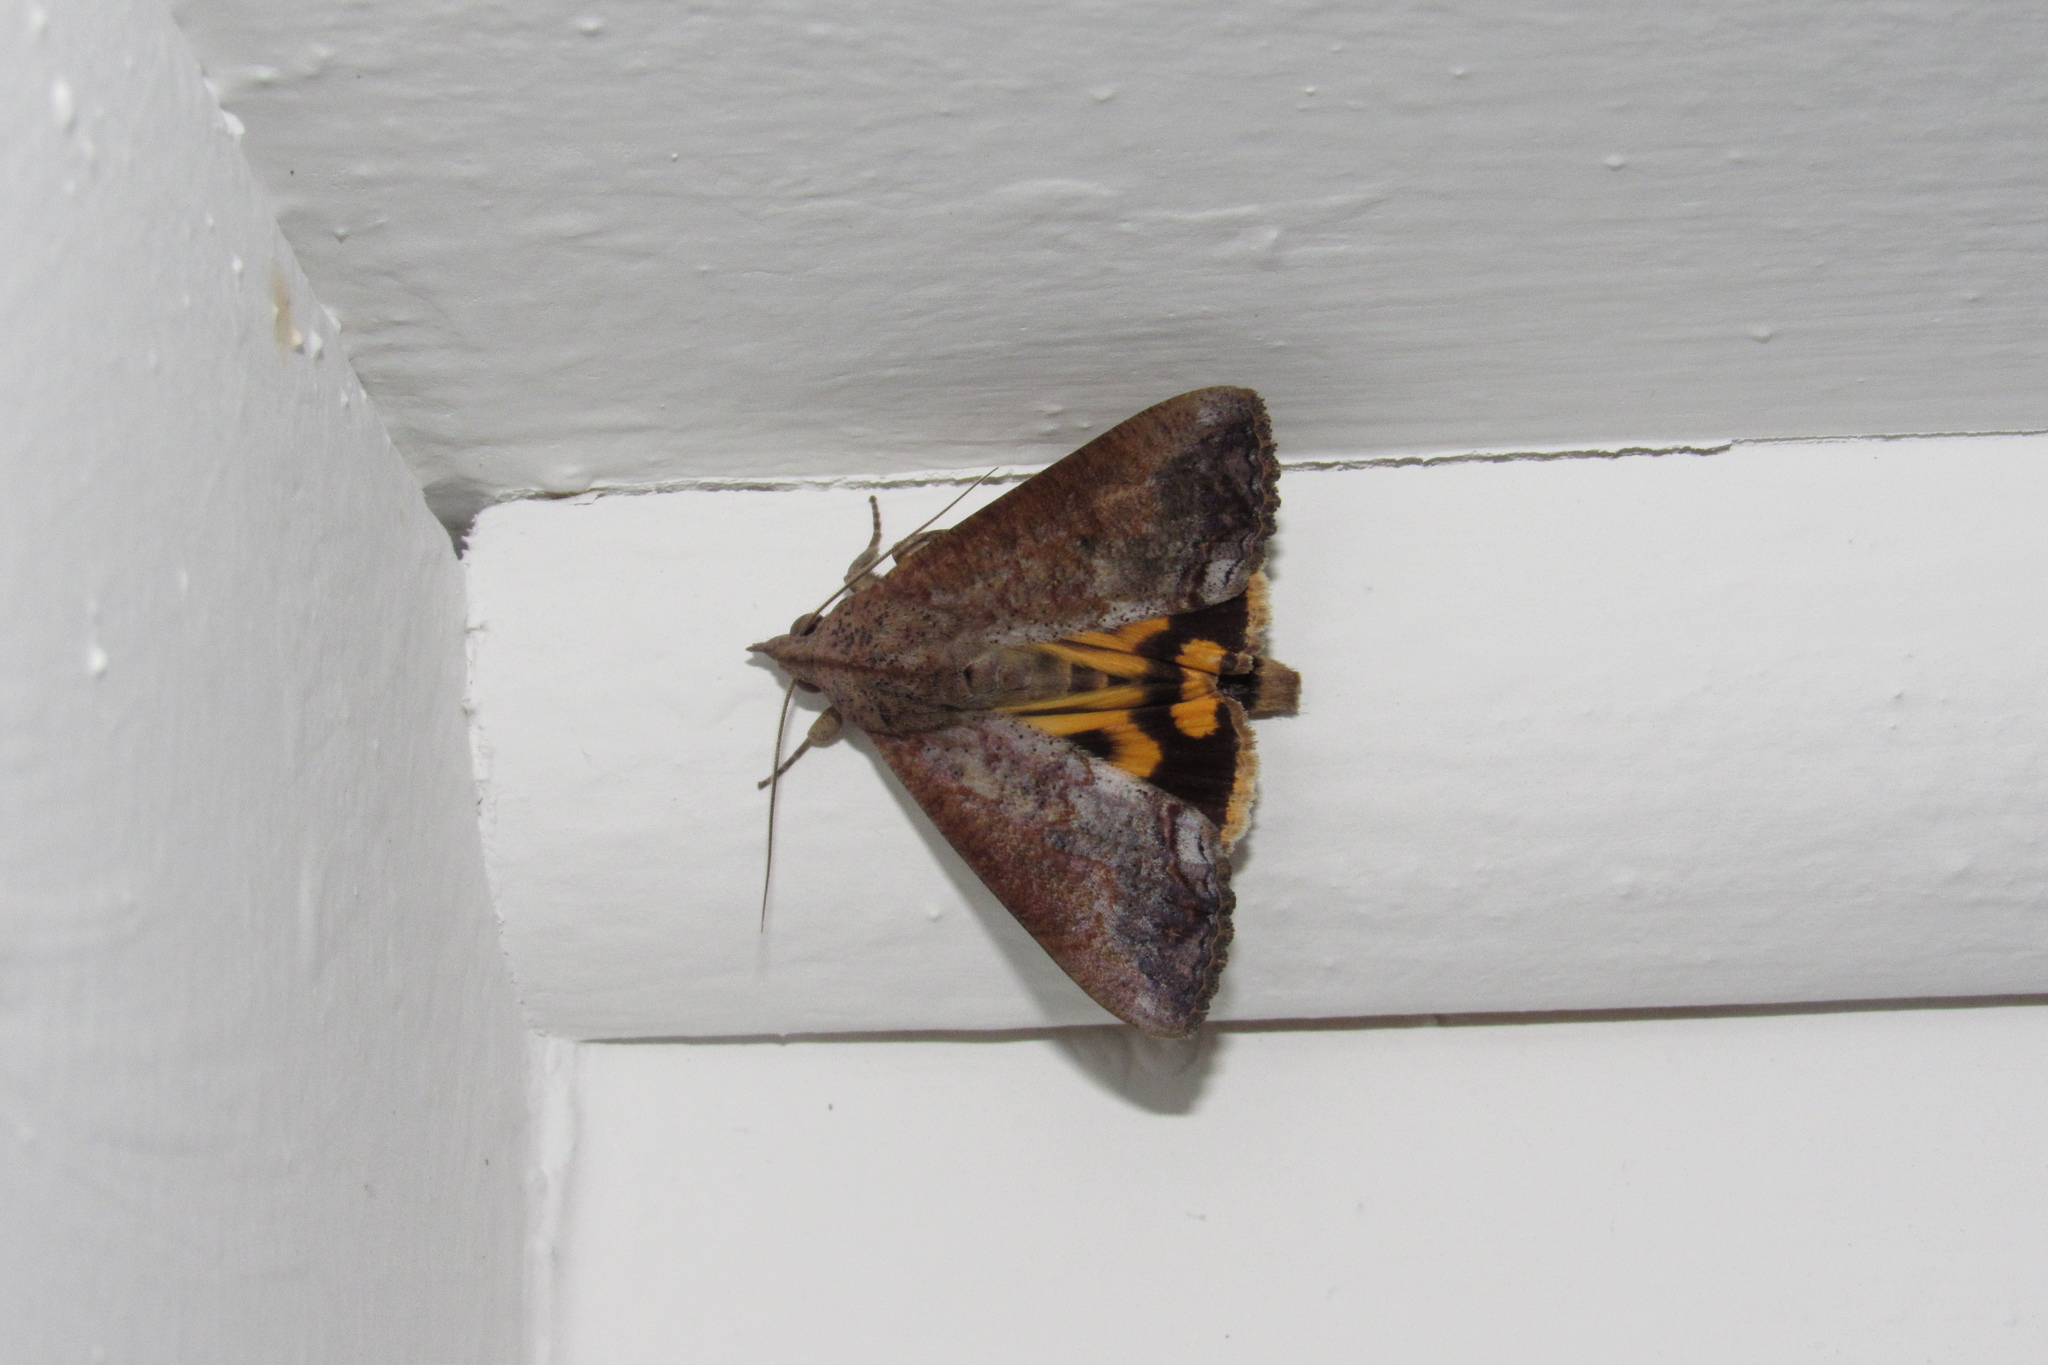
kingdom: Animalia
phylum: Arthropoda
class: Insecta
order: Lepidoptera
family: Erebidae
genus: Hypocala
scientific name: Hypocala andremona
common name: Hypocala moth
